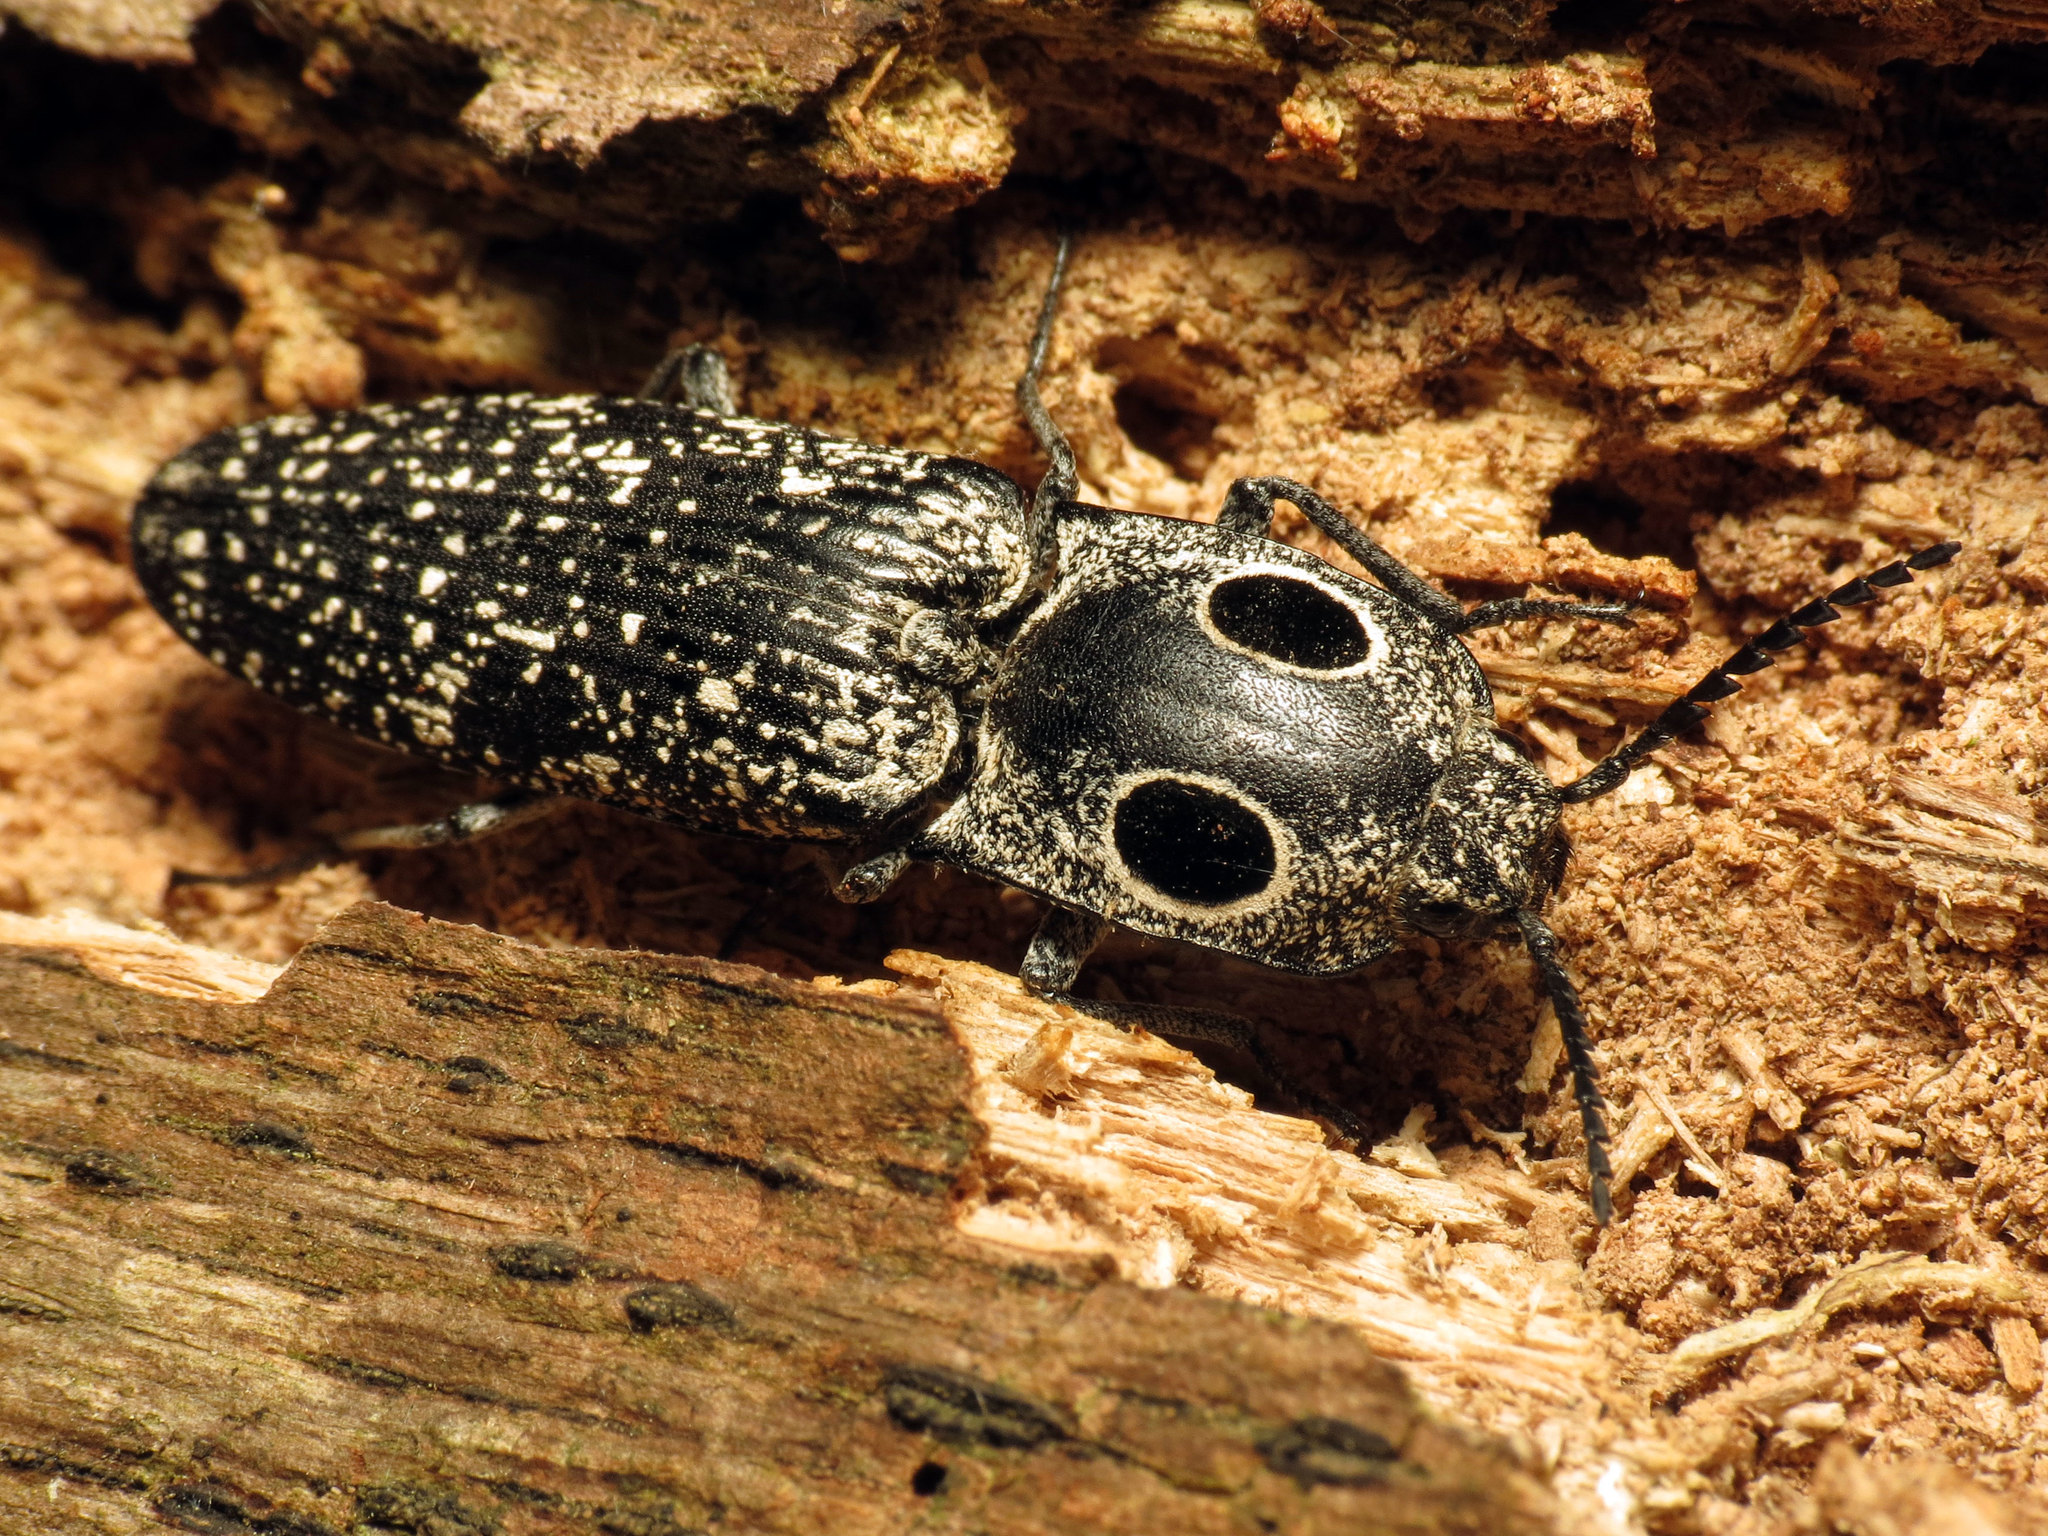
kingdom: Animalia
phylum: Arthropoda
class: Insecta
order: Coleoptera
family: Elateridae
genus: Alaus
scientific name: Alaus oculatus
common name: Eastern eyed click beetle
